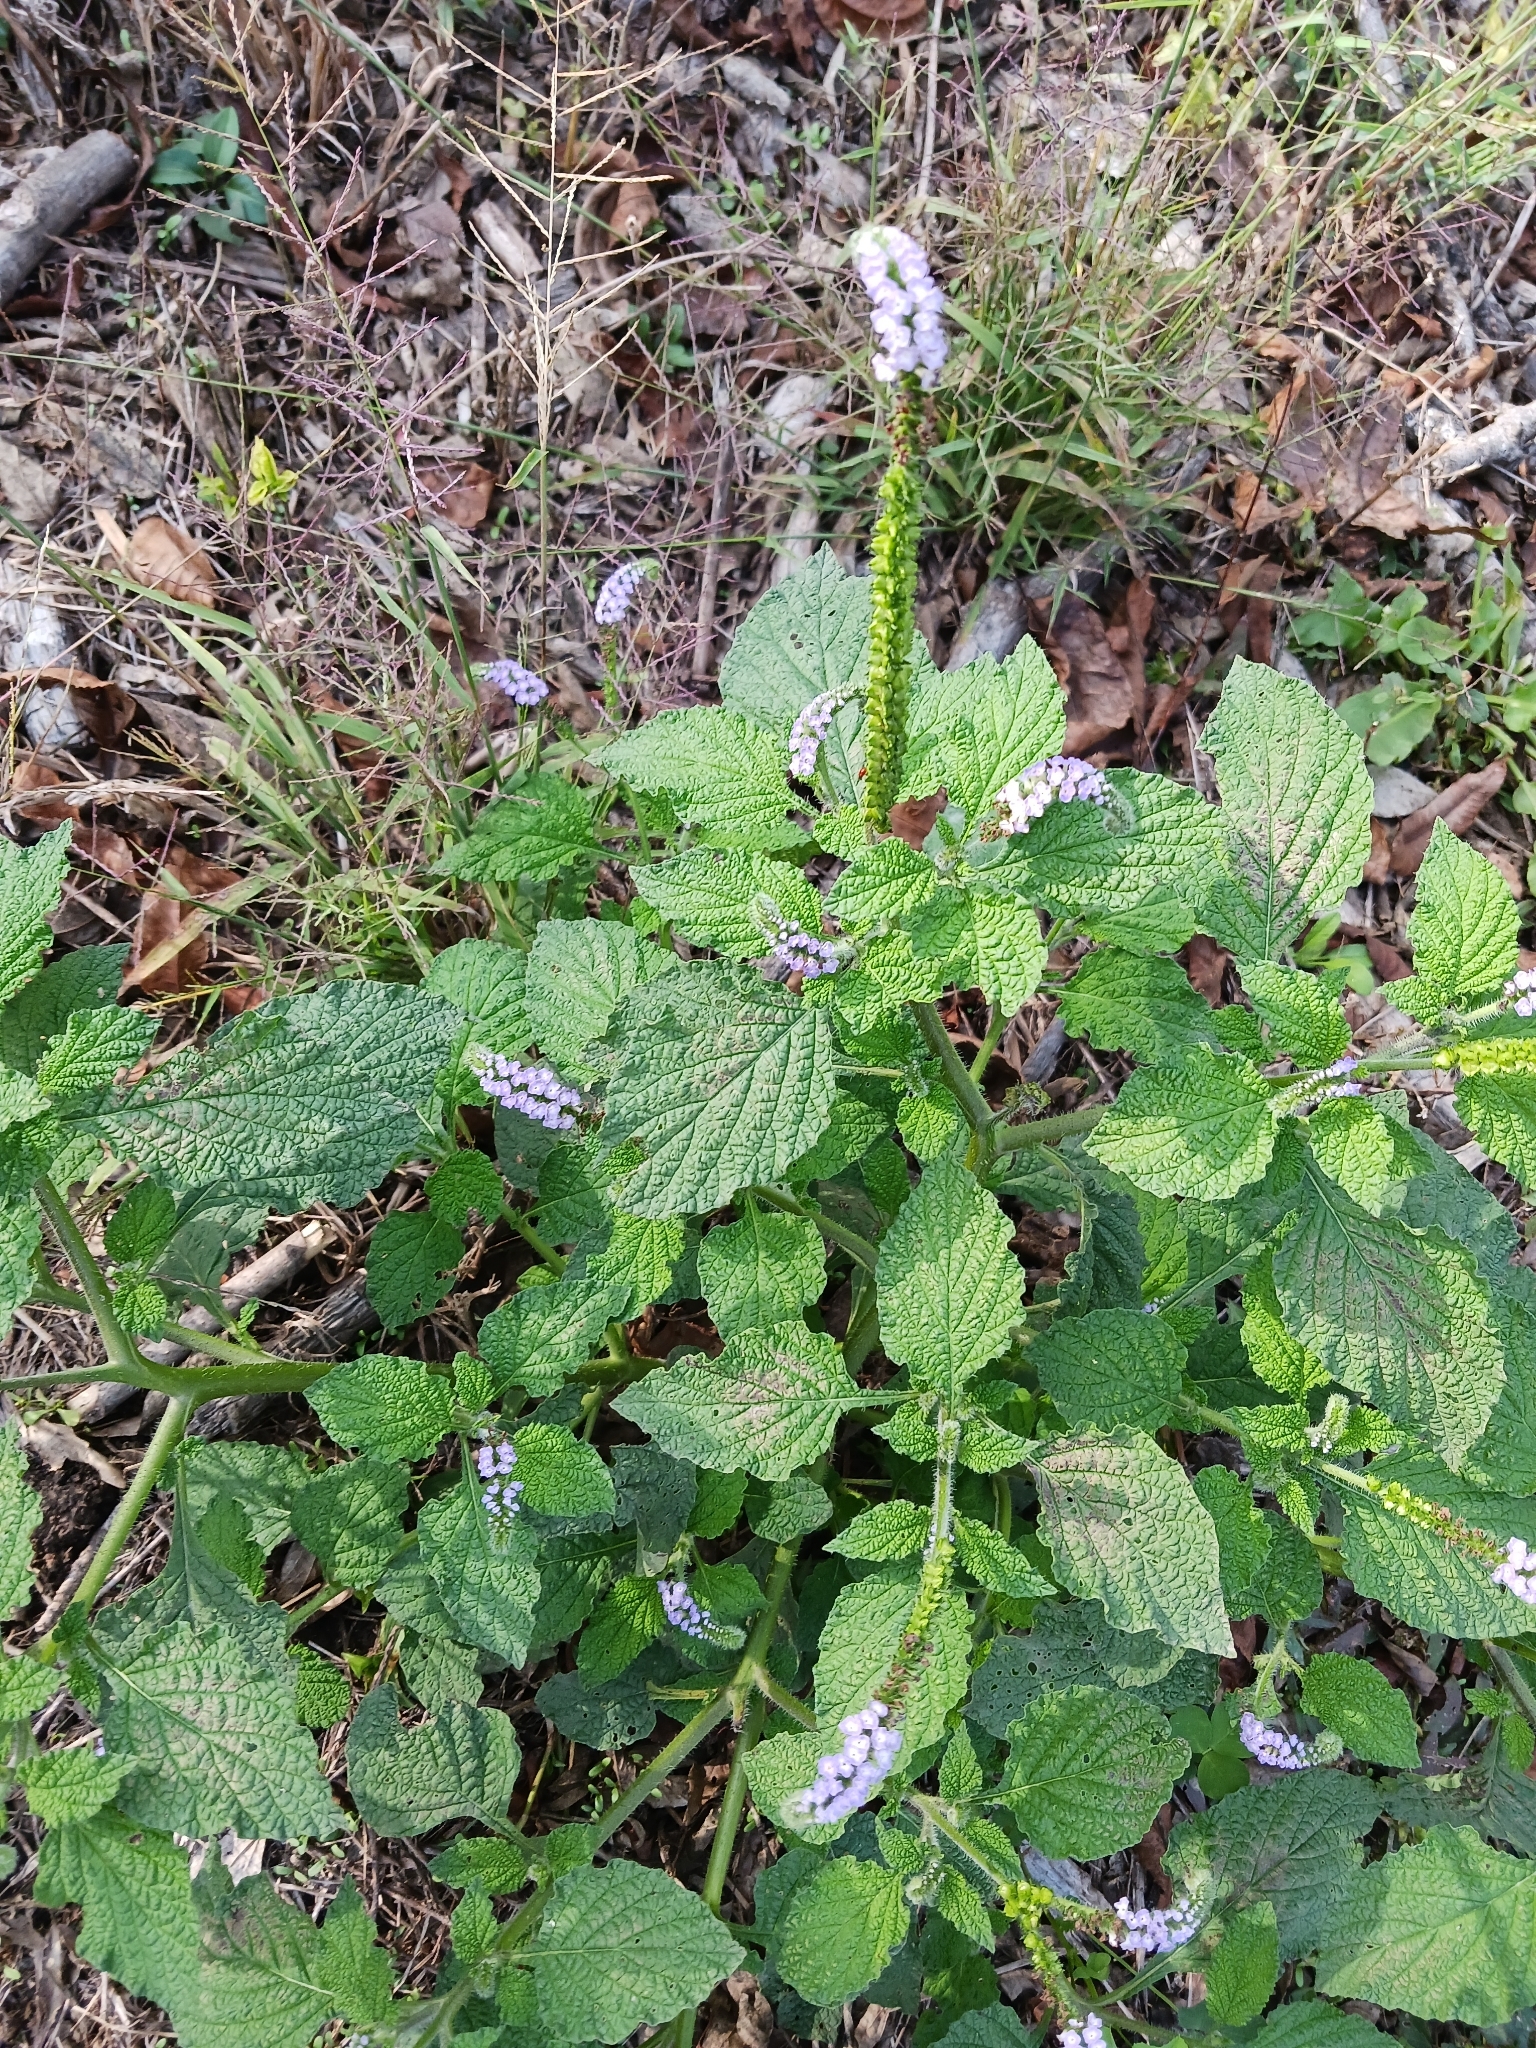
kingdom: Plantae
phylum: Tracheophyta
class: Magnoliopsida
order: Boraginales
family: Heliotropiaceae
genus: Heliotropium
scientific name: Heliotropium indicum
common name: Indian heliotrope
